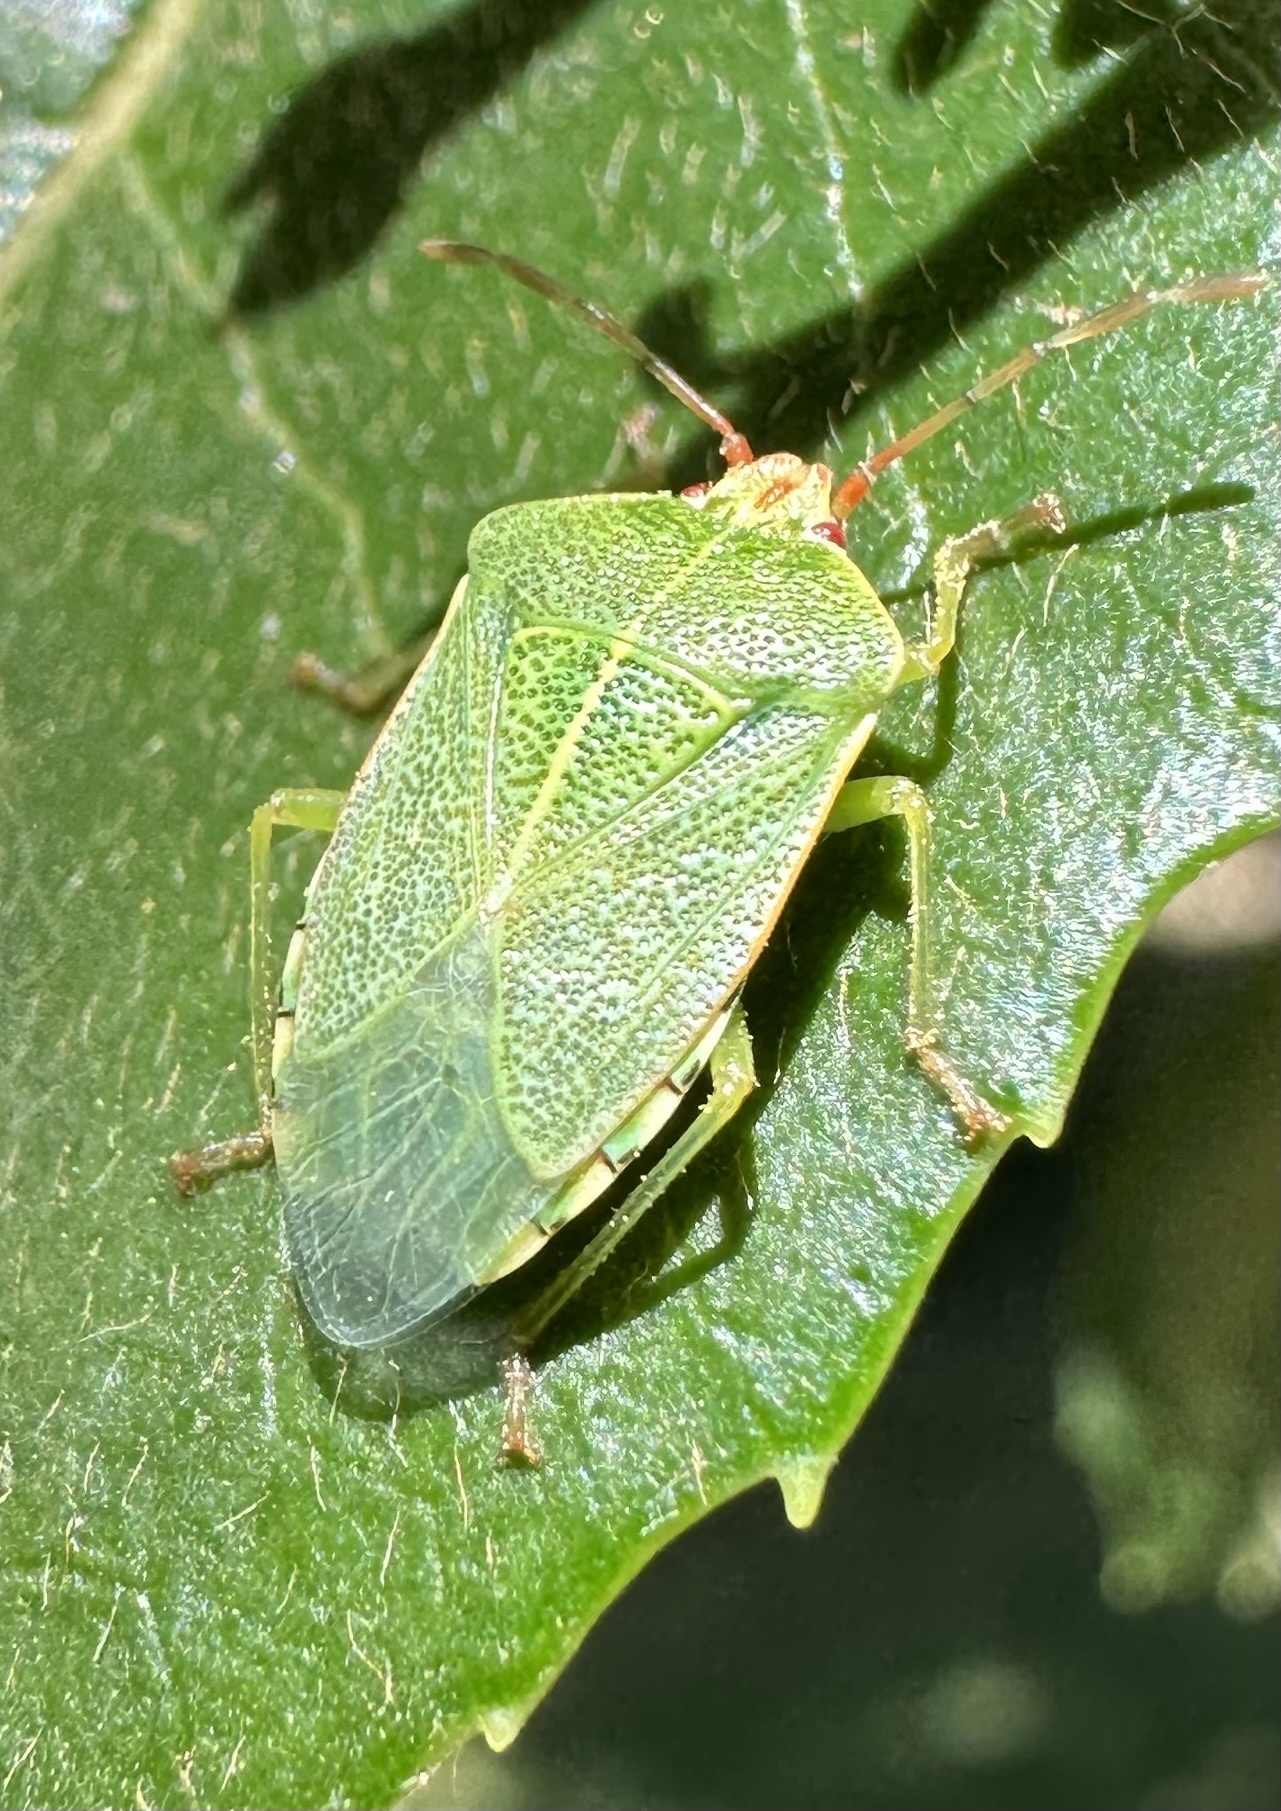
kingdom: Animalia
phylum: Arthropoda
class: Insecta
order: Hemiptera
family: Acanthosomatidae
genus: Sinopla
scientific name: Sinopla perpunctatus
